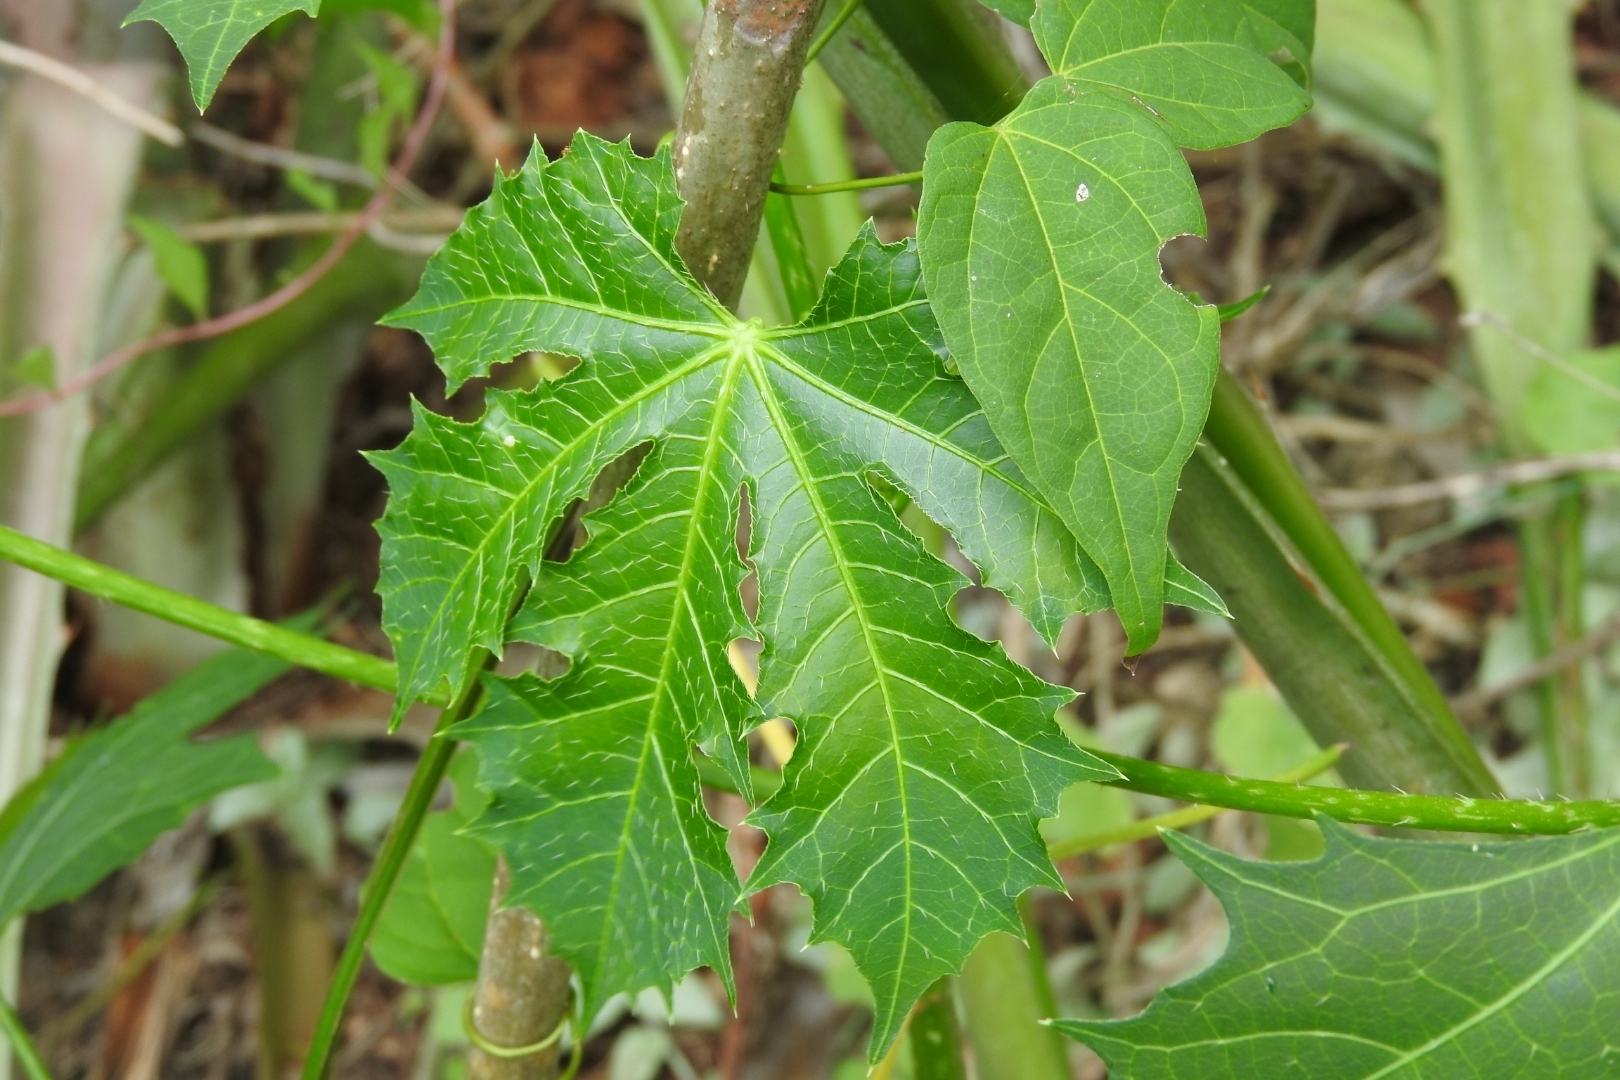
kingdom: Plantae
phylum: Tracheophyta
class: Magnoliopsida
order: Malpighiales
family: Euphorbiaceae
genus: Cnidoscolus
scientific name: Cnidoscolus aconitifolius
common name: Cabbage-star
